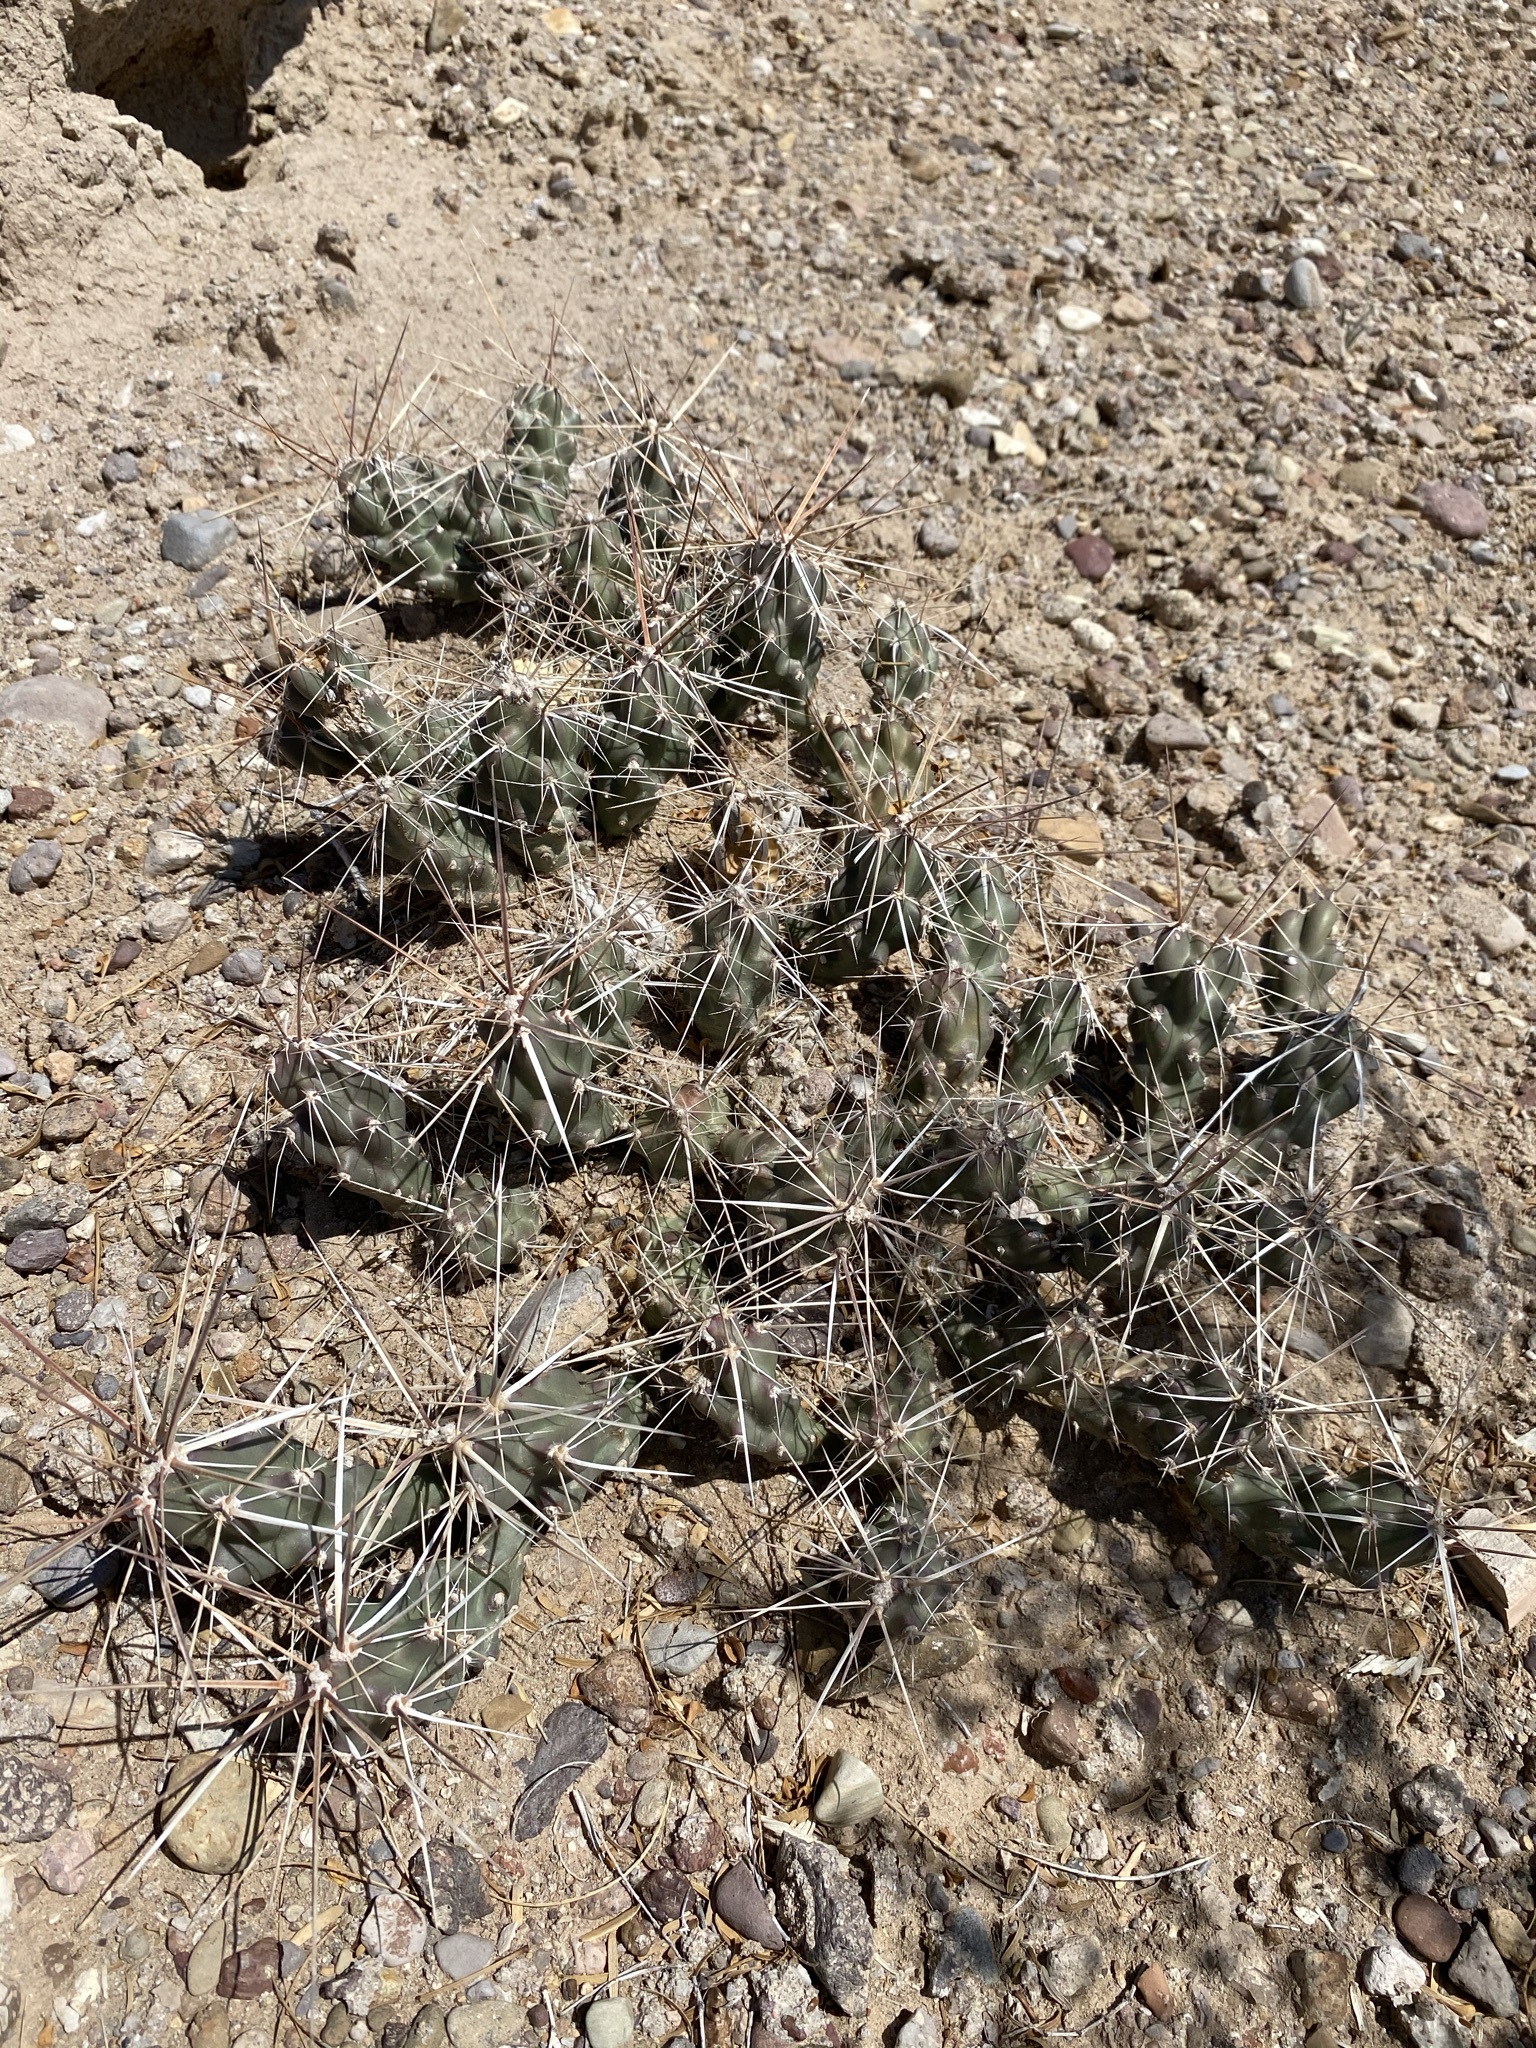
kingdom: Plantae
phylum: Tracheophyta
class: Magnoliopsida
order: Caryophyllales
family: Cactaceae
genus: Grusonia
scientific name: Grusonia aggeria
